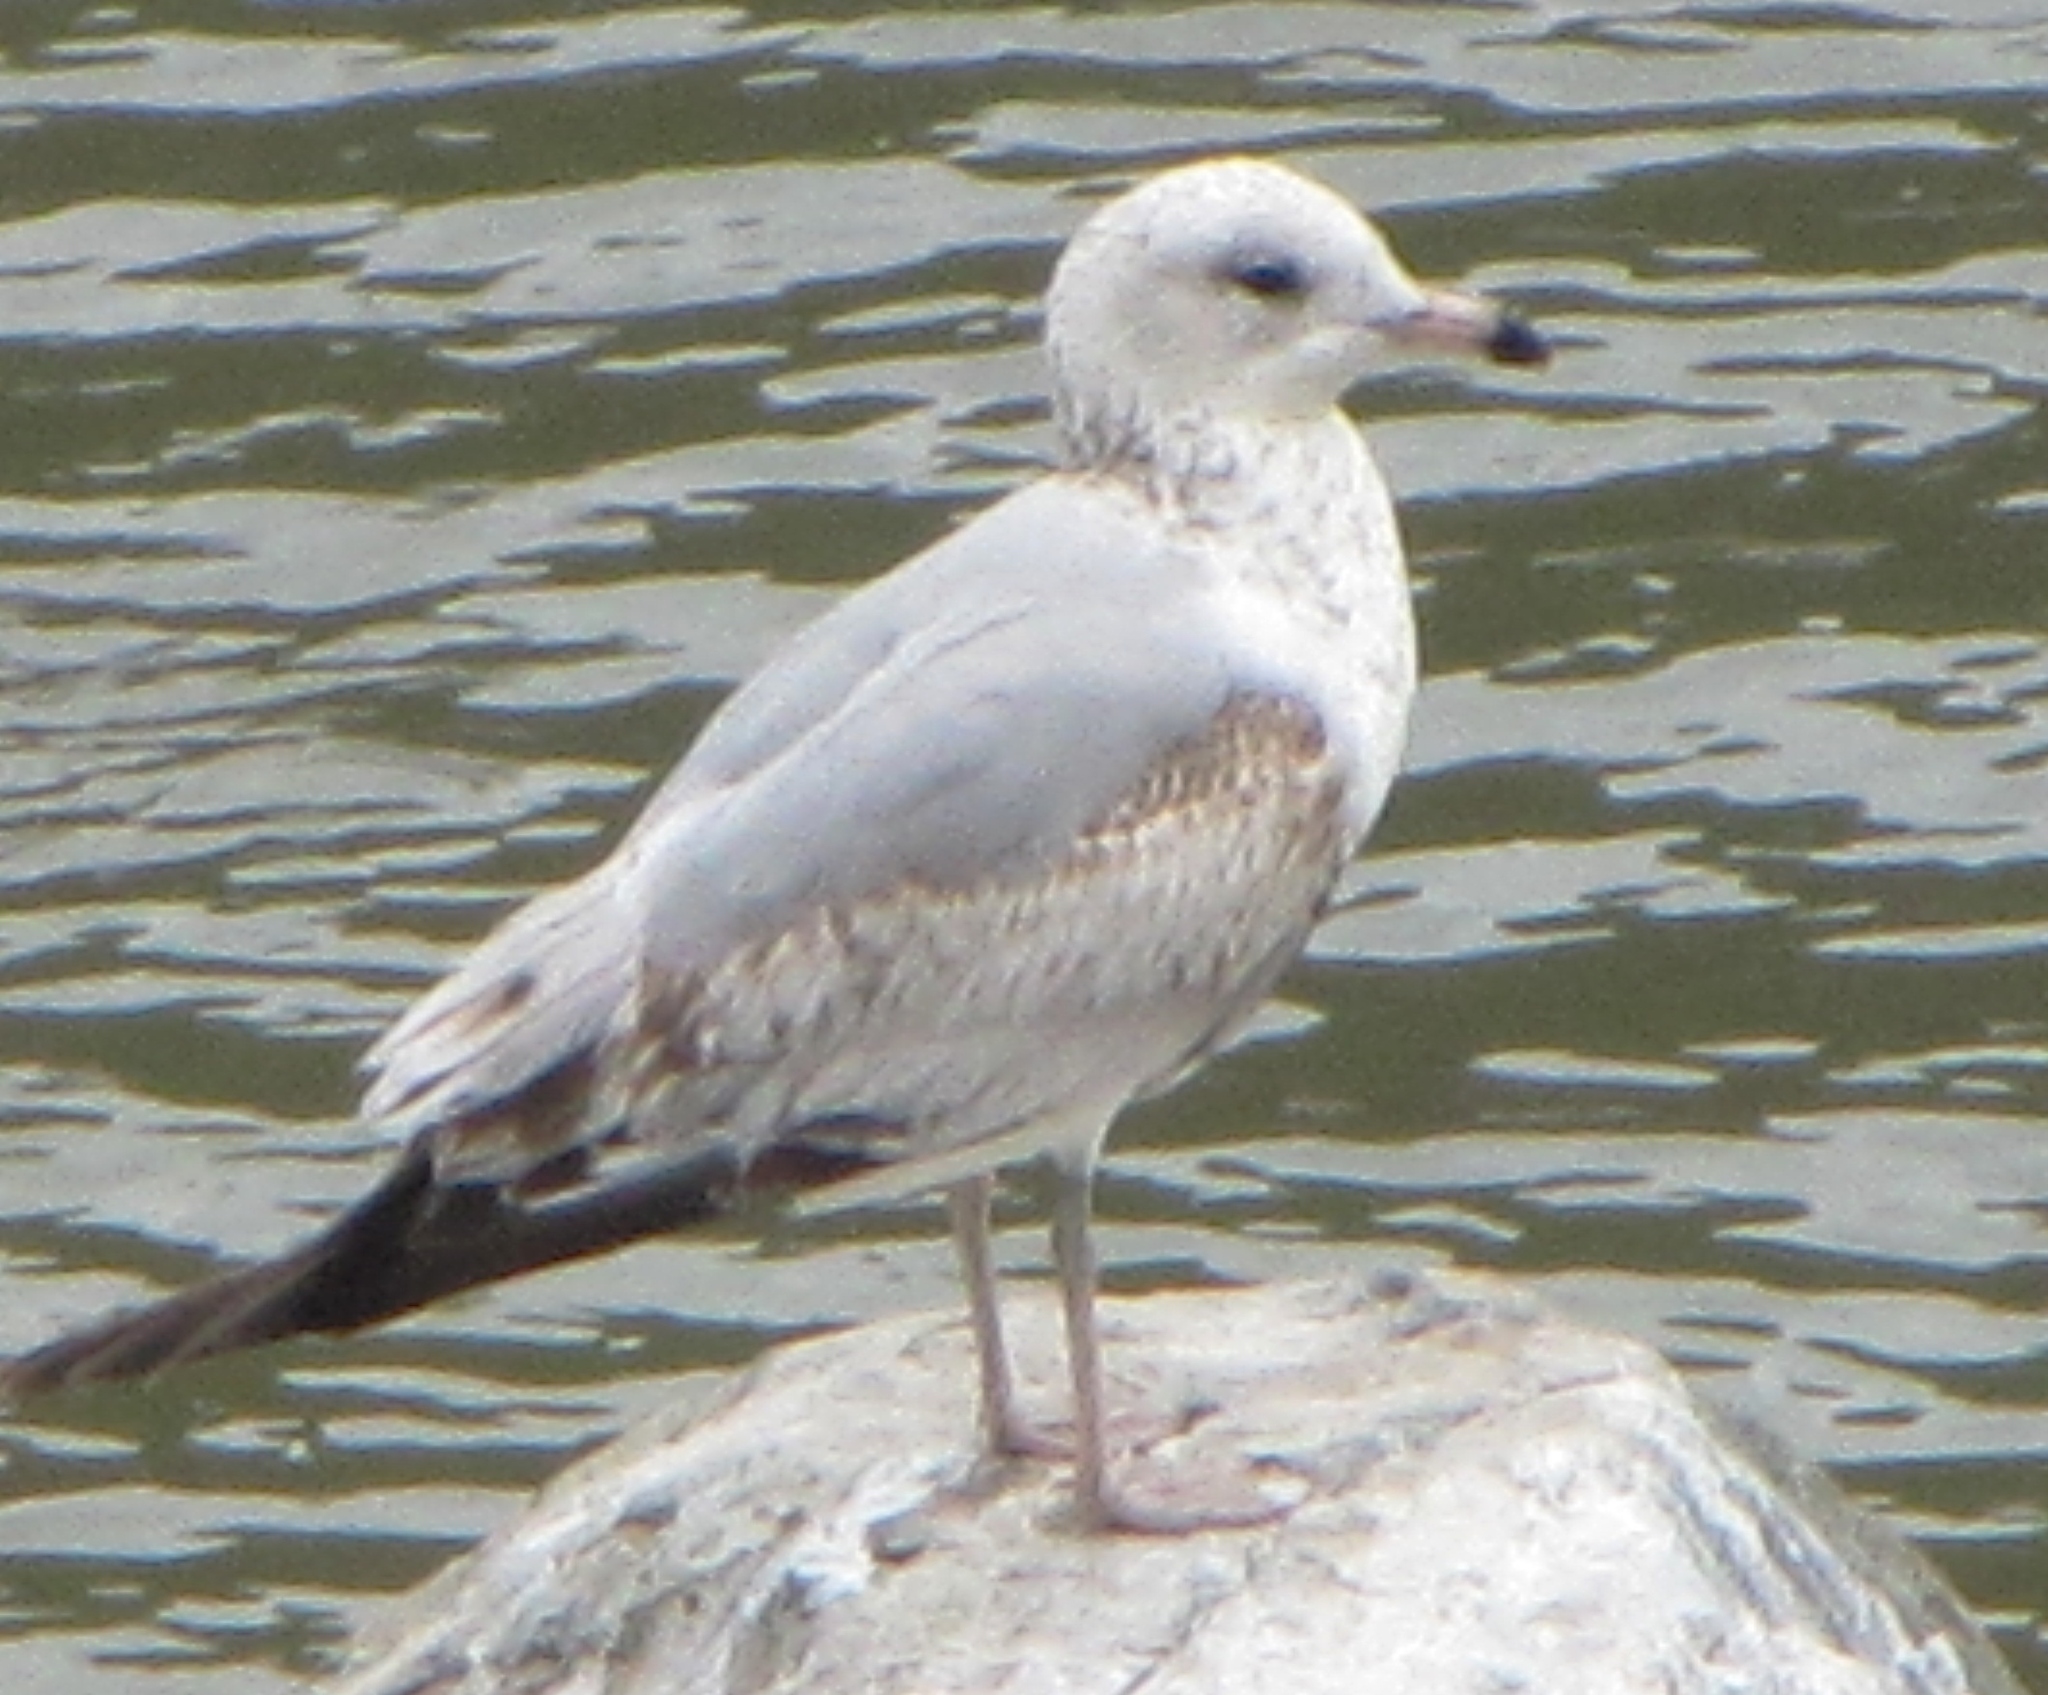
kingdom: Animalia
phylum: Chordata
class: Aves
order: Charadriiformes
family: Laridae
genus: Larus
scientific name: Larus delawarensis
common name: Ring-billed gull
